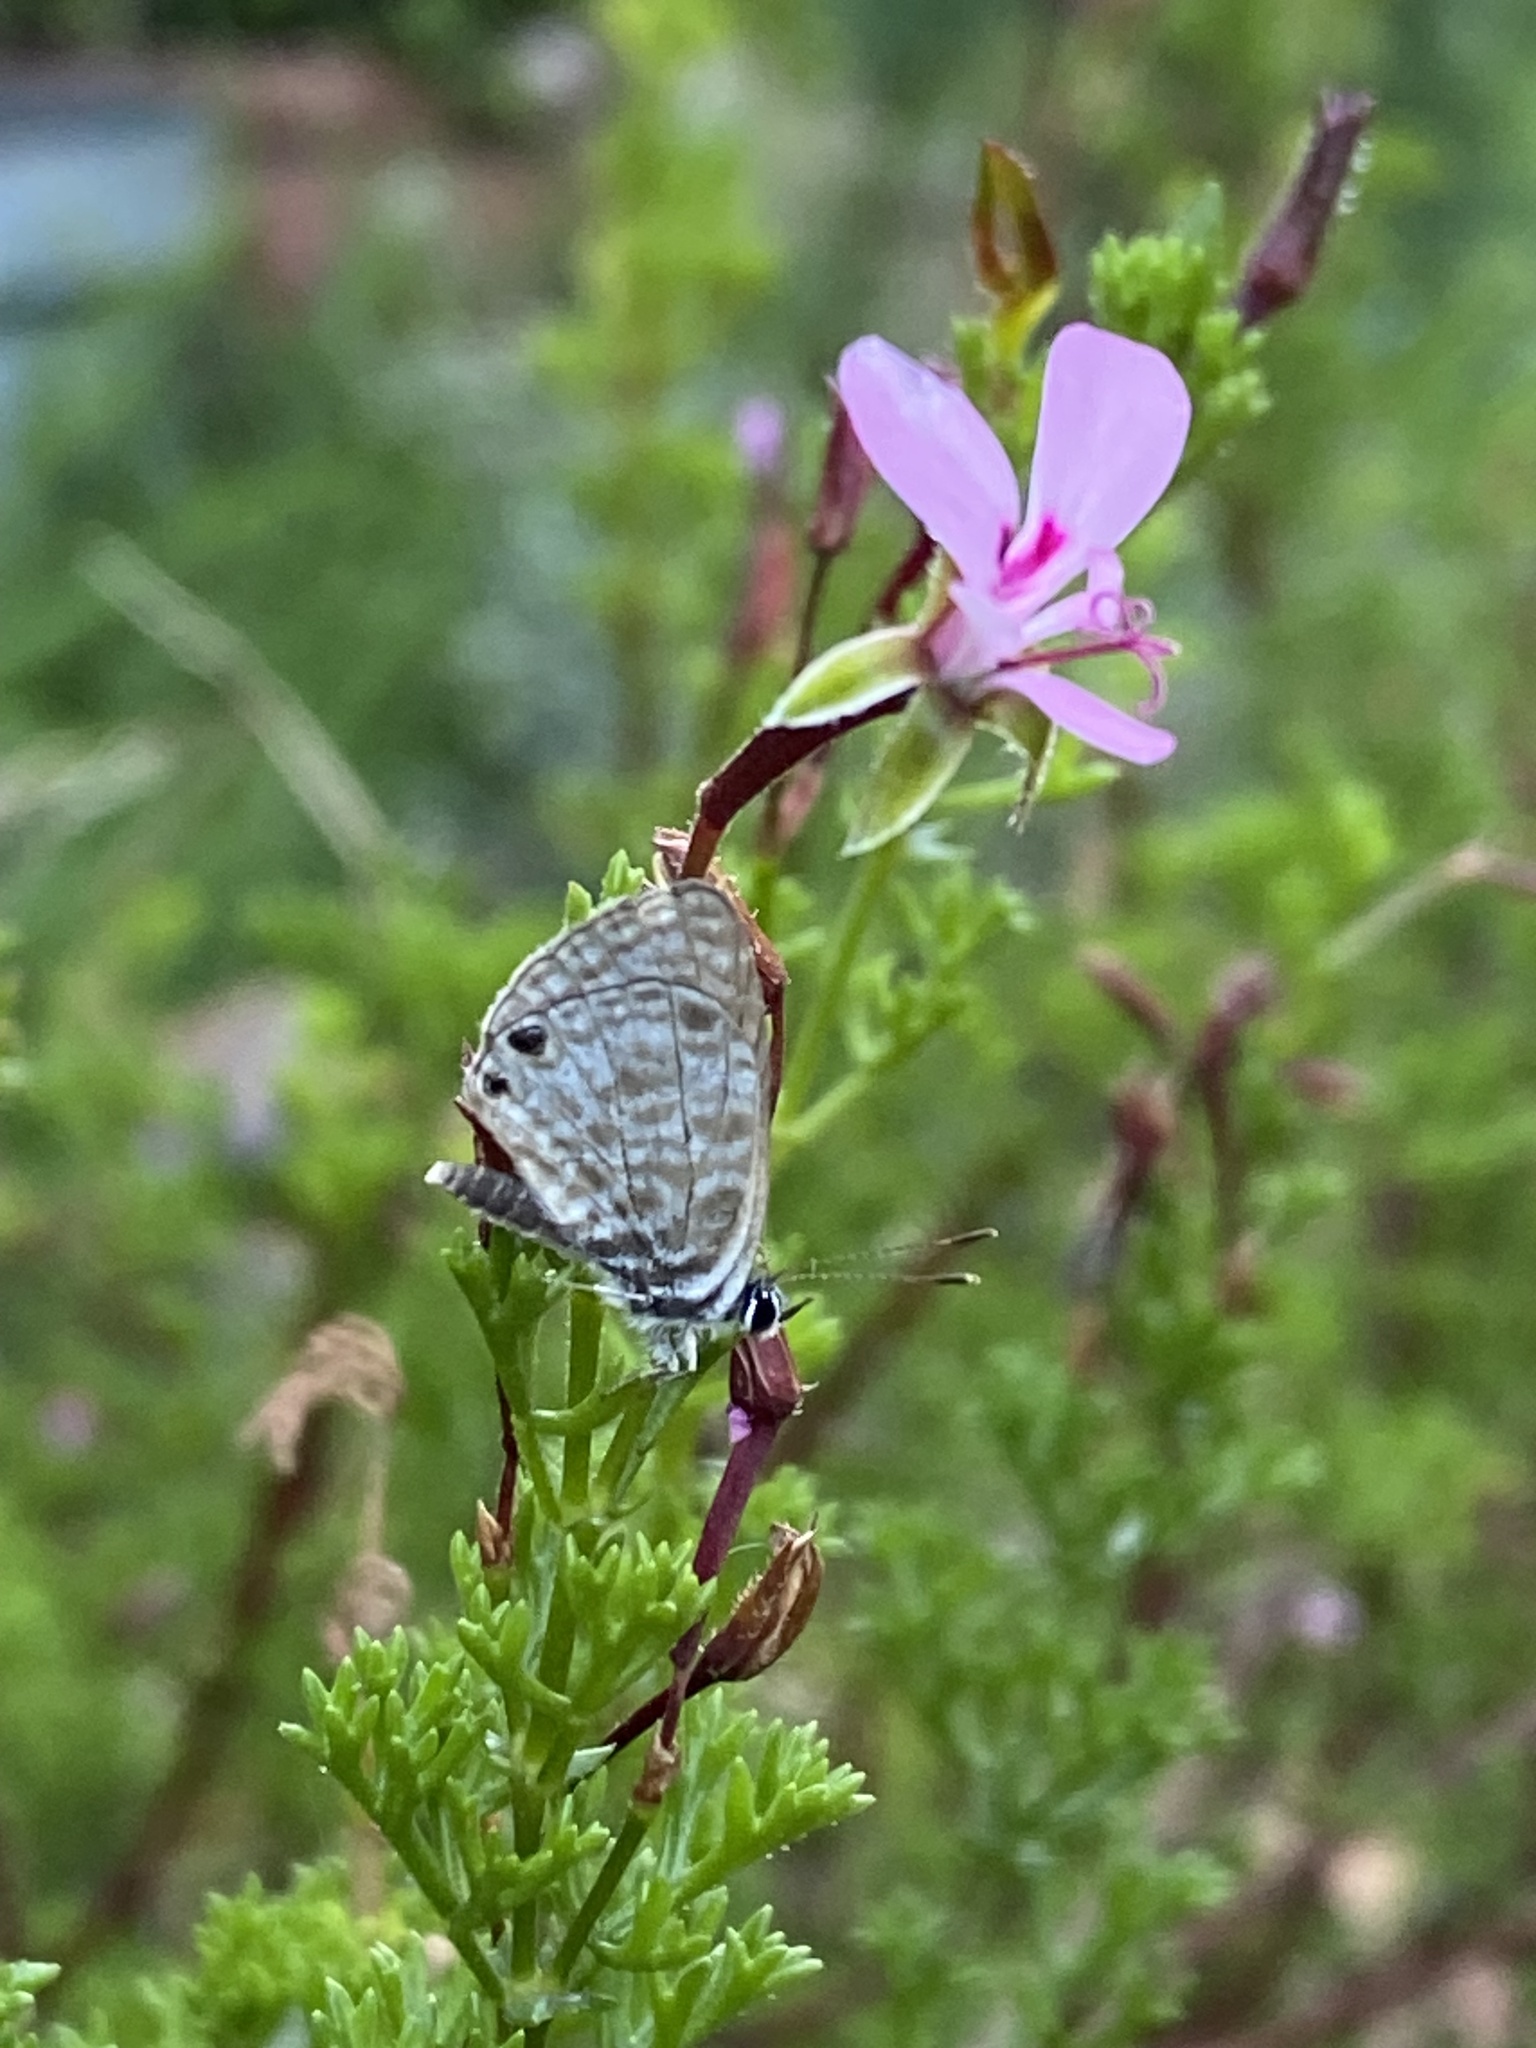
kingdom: Animalia
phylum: Arthropoda
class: Insecta
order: Lepidoptera
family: Lycaenidae
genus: Leptotes
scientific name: Leptotes
